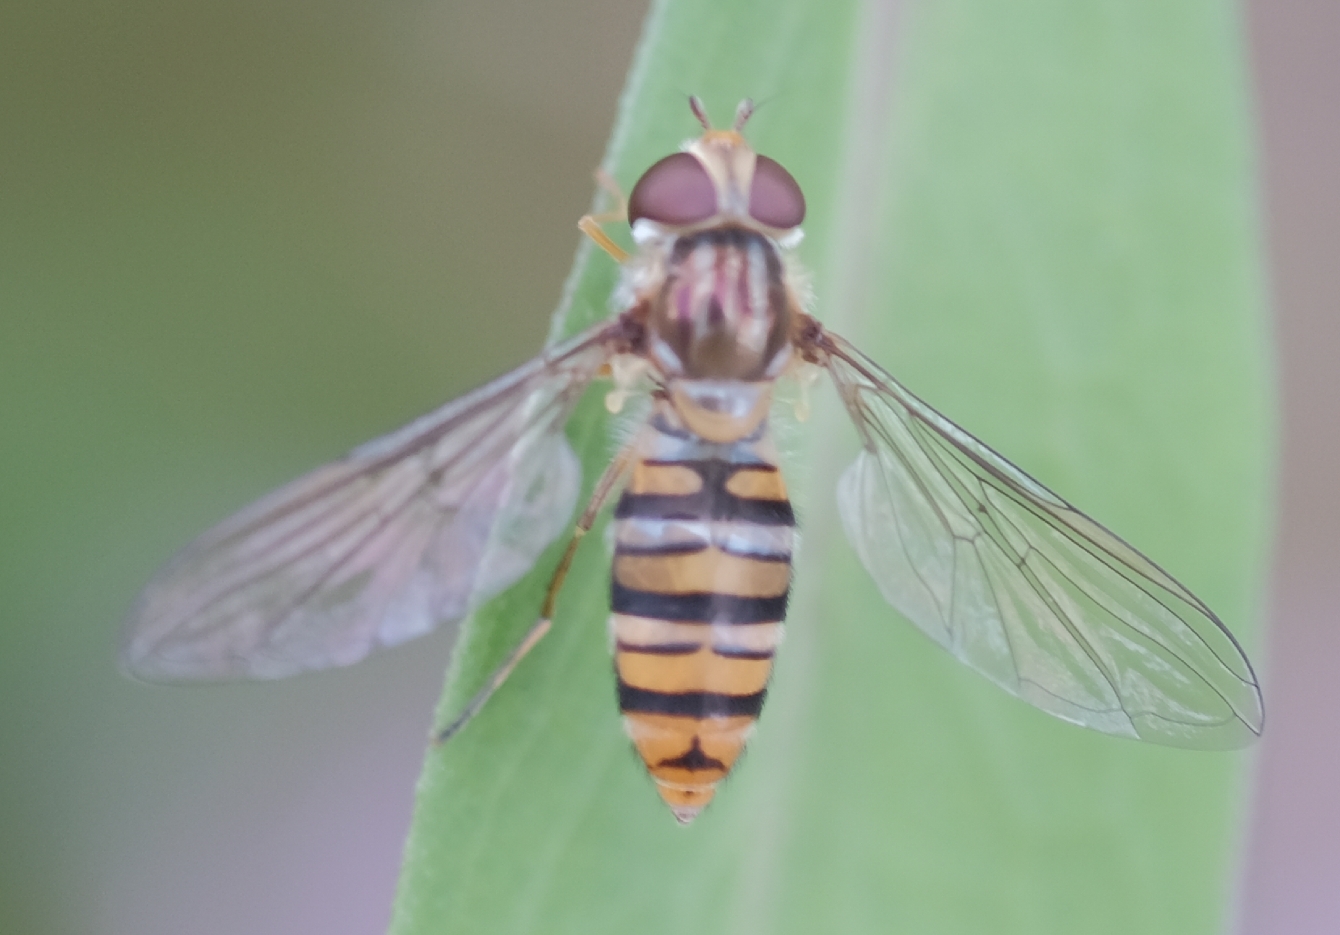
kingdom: Animalia
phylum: Arthropoda
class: Insecta
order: Diptera
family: Syrphidae
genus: Episyrphus
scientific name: Episyrphus balteatus
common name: Marmalade hoverfly
